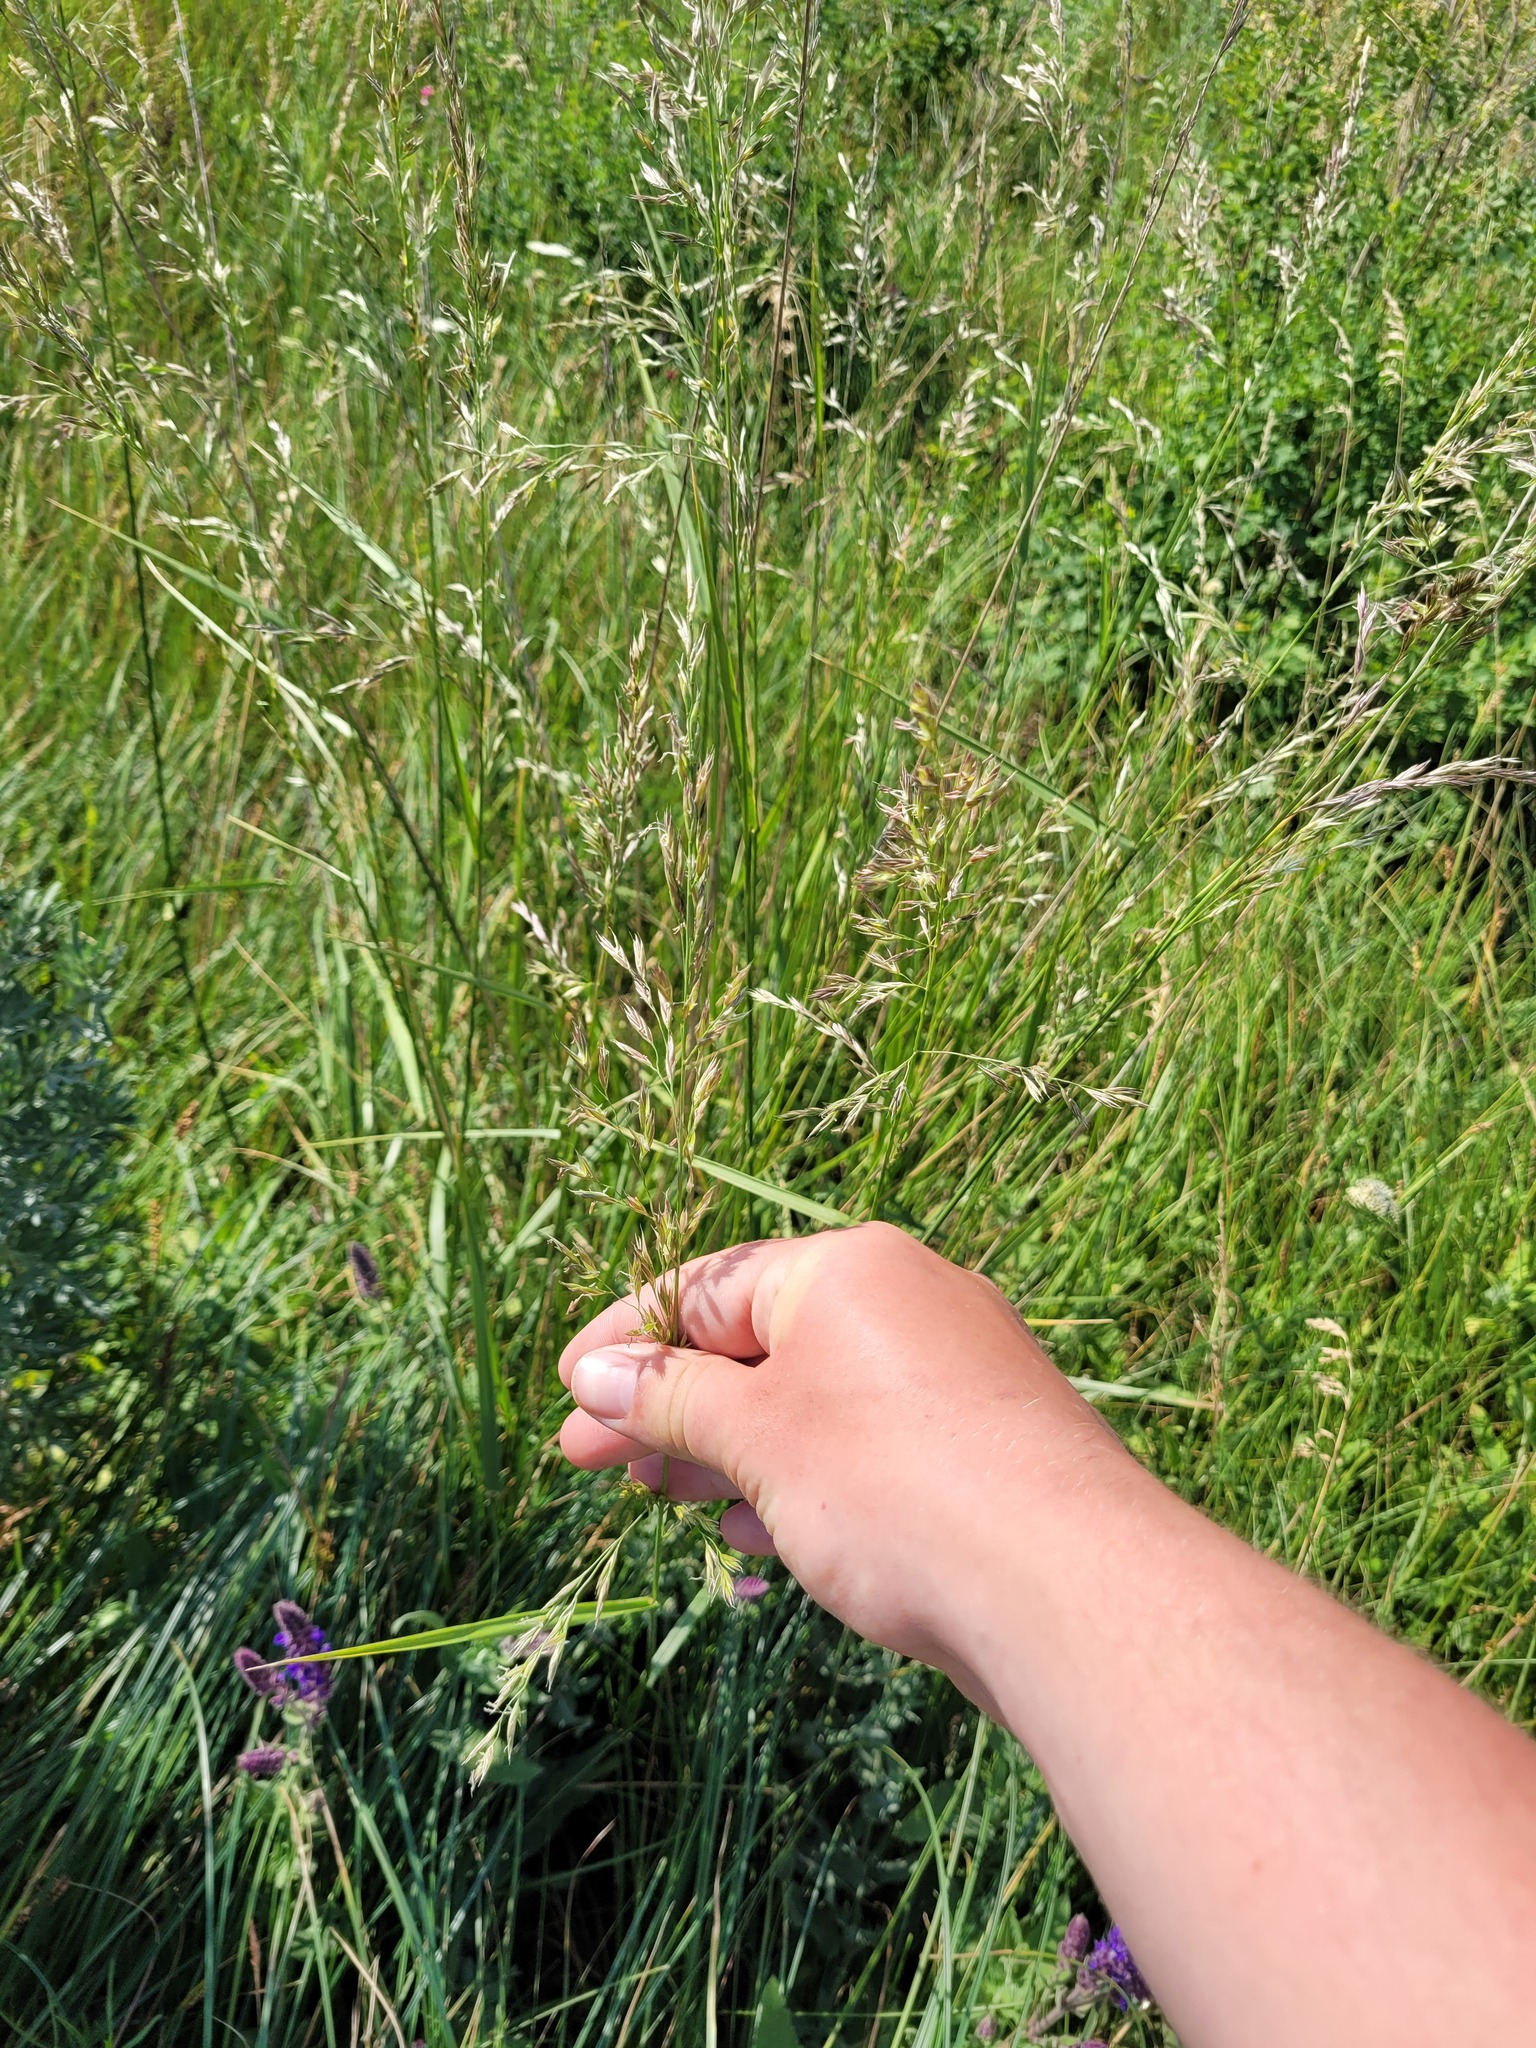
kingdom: Plantae
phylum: Tracheophyta
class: Liliopsida
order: Poales
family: Poaceae
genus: Lolium
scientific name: Lolium arundinaceum
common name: Reed fescue
